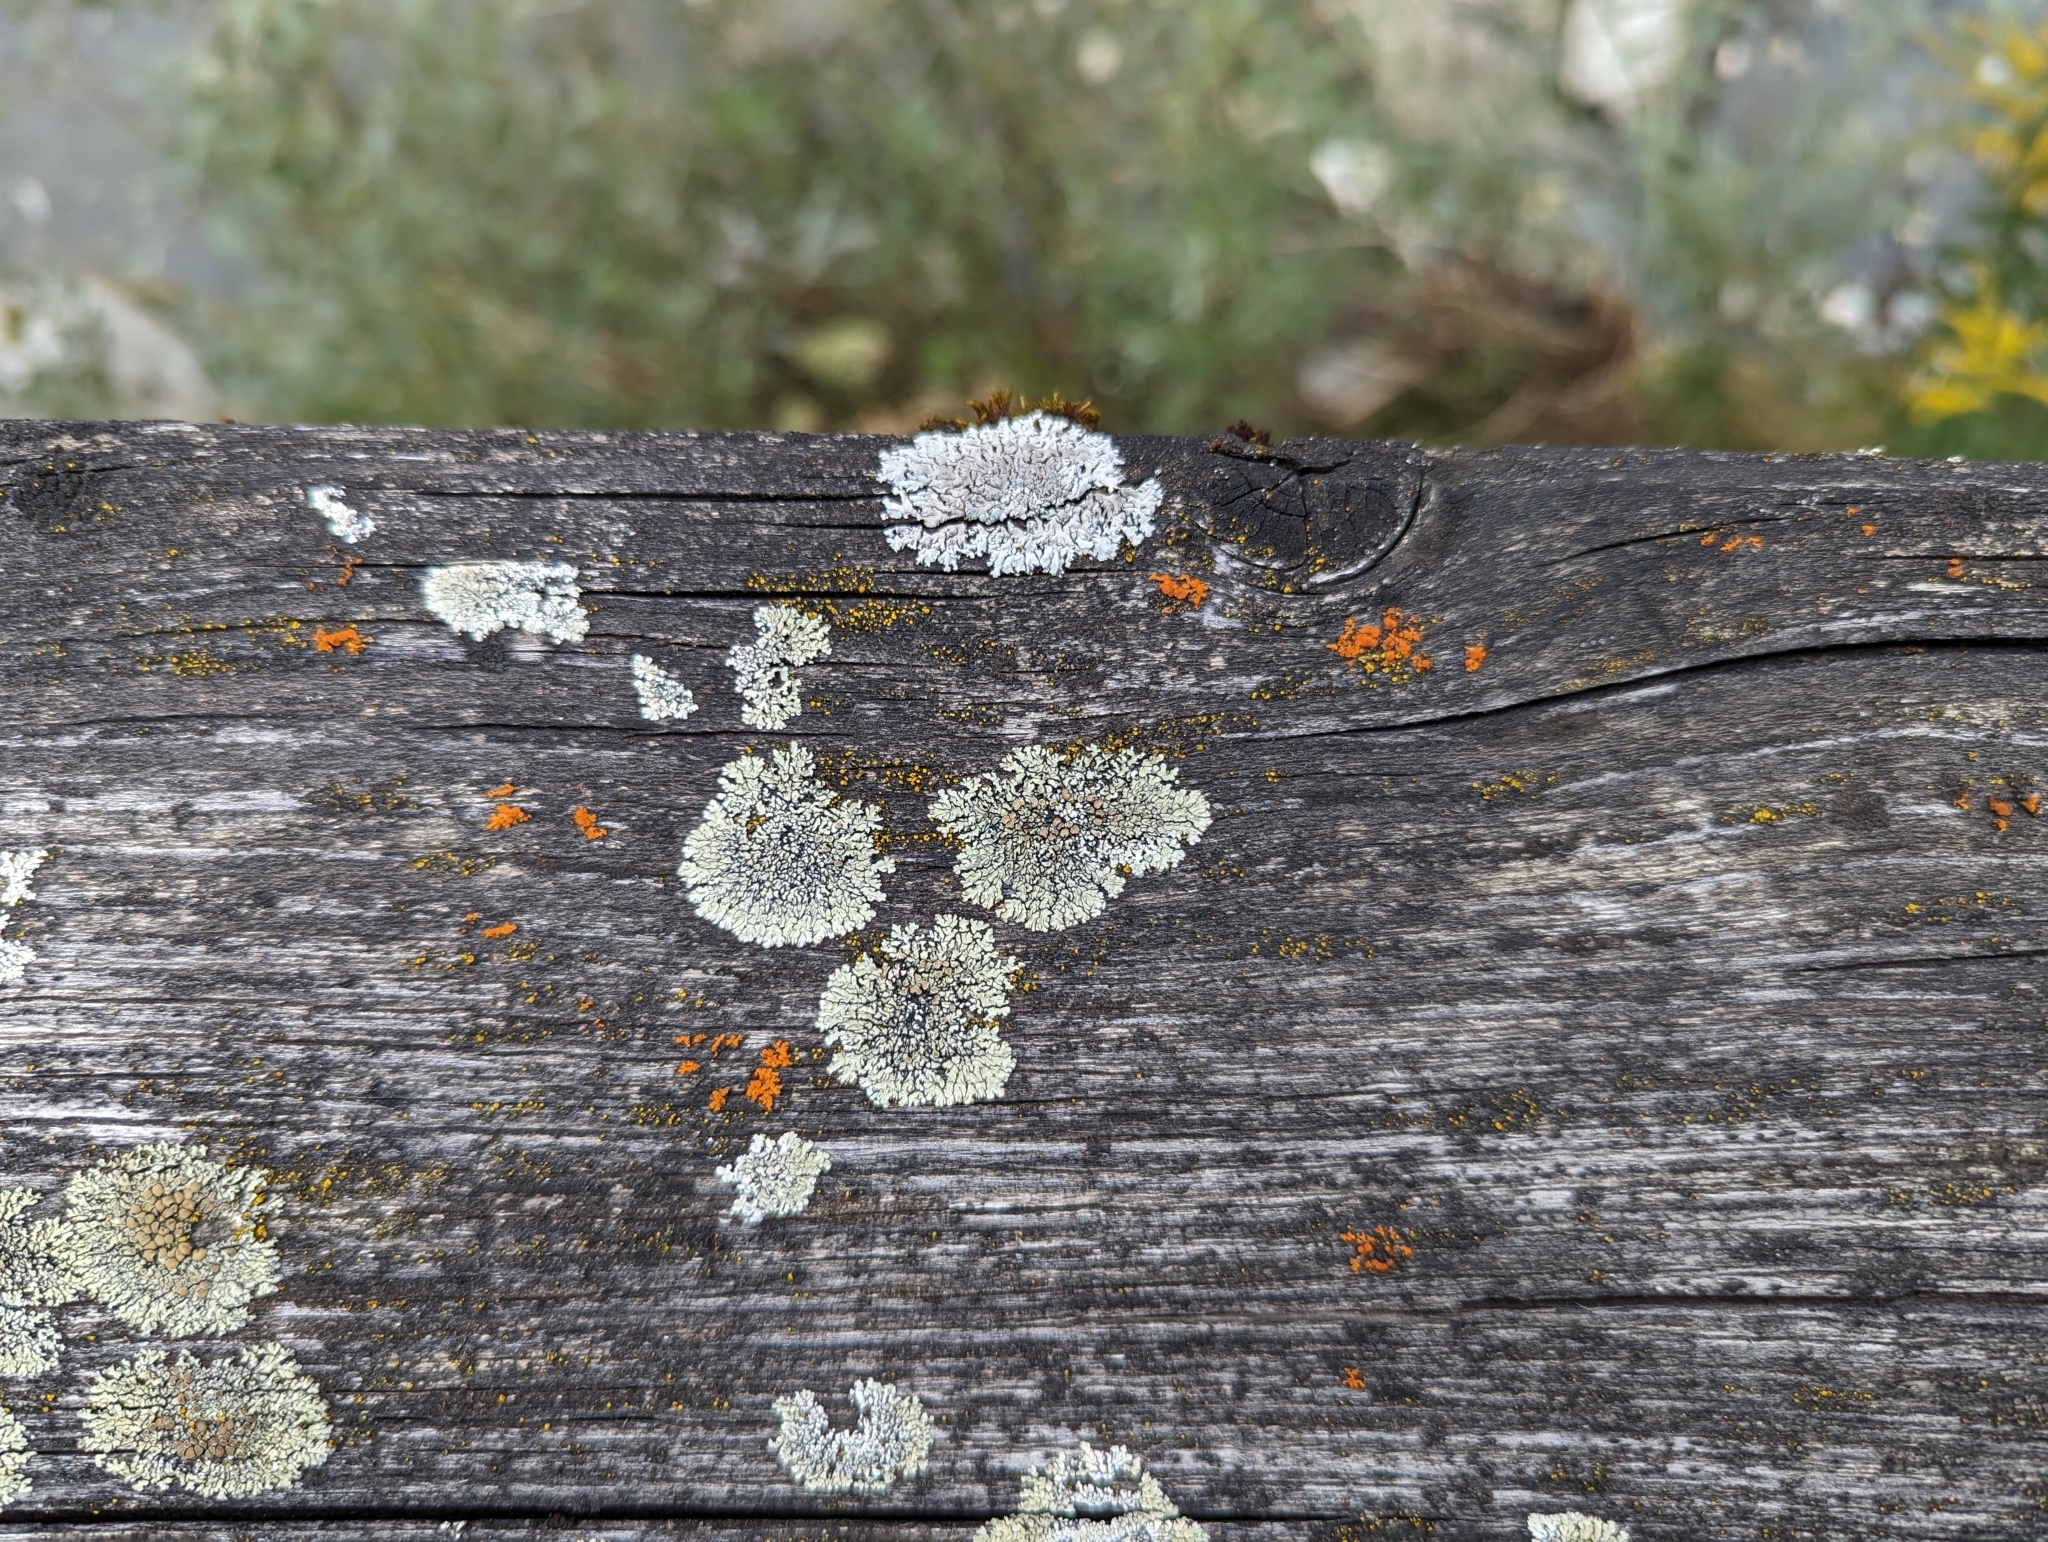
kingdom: Fungi
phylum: Ascomycota
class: Lecanoromycetes
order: Teloschistales
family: Teloschistaceae
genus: Xanthoria
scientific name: Xanthoria elegans
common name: Elegant sunburst lichen
